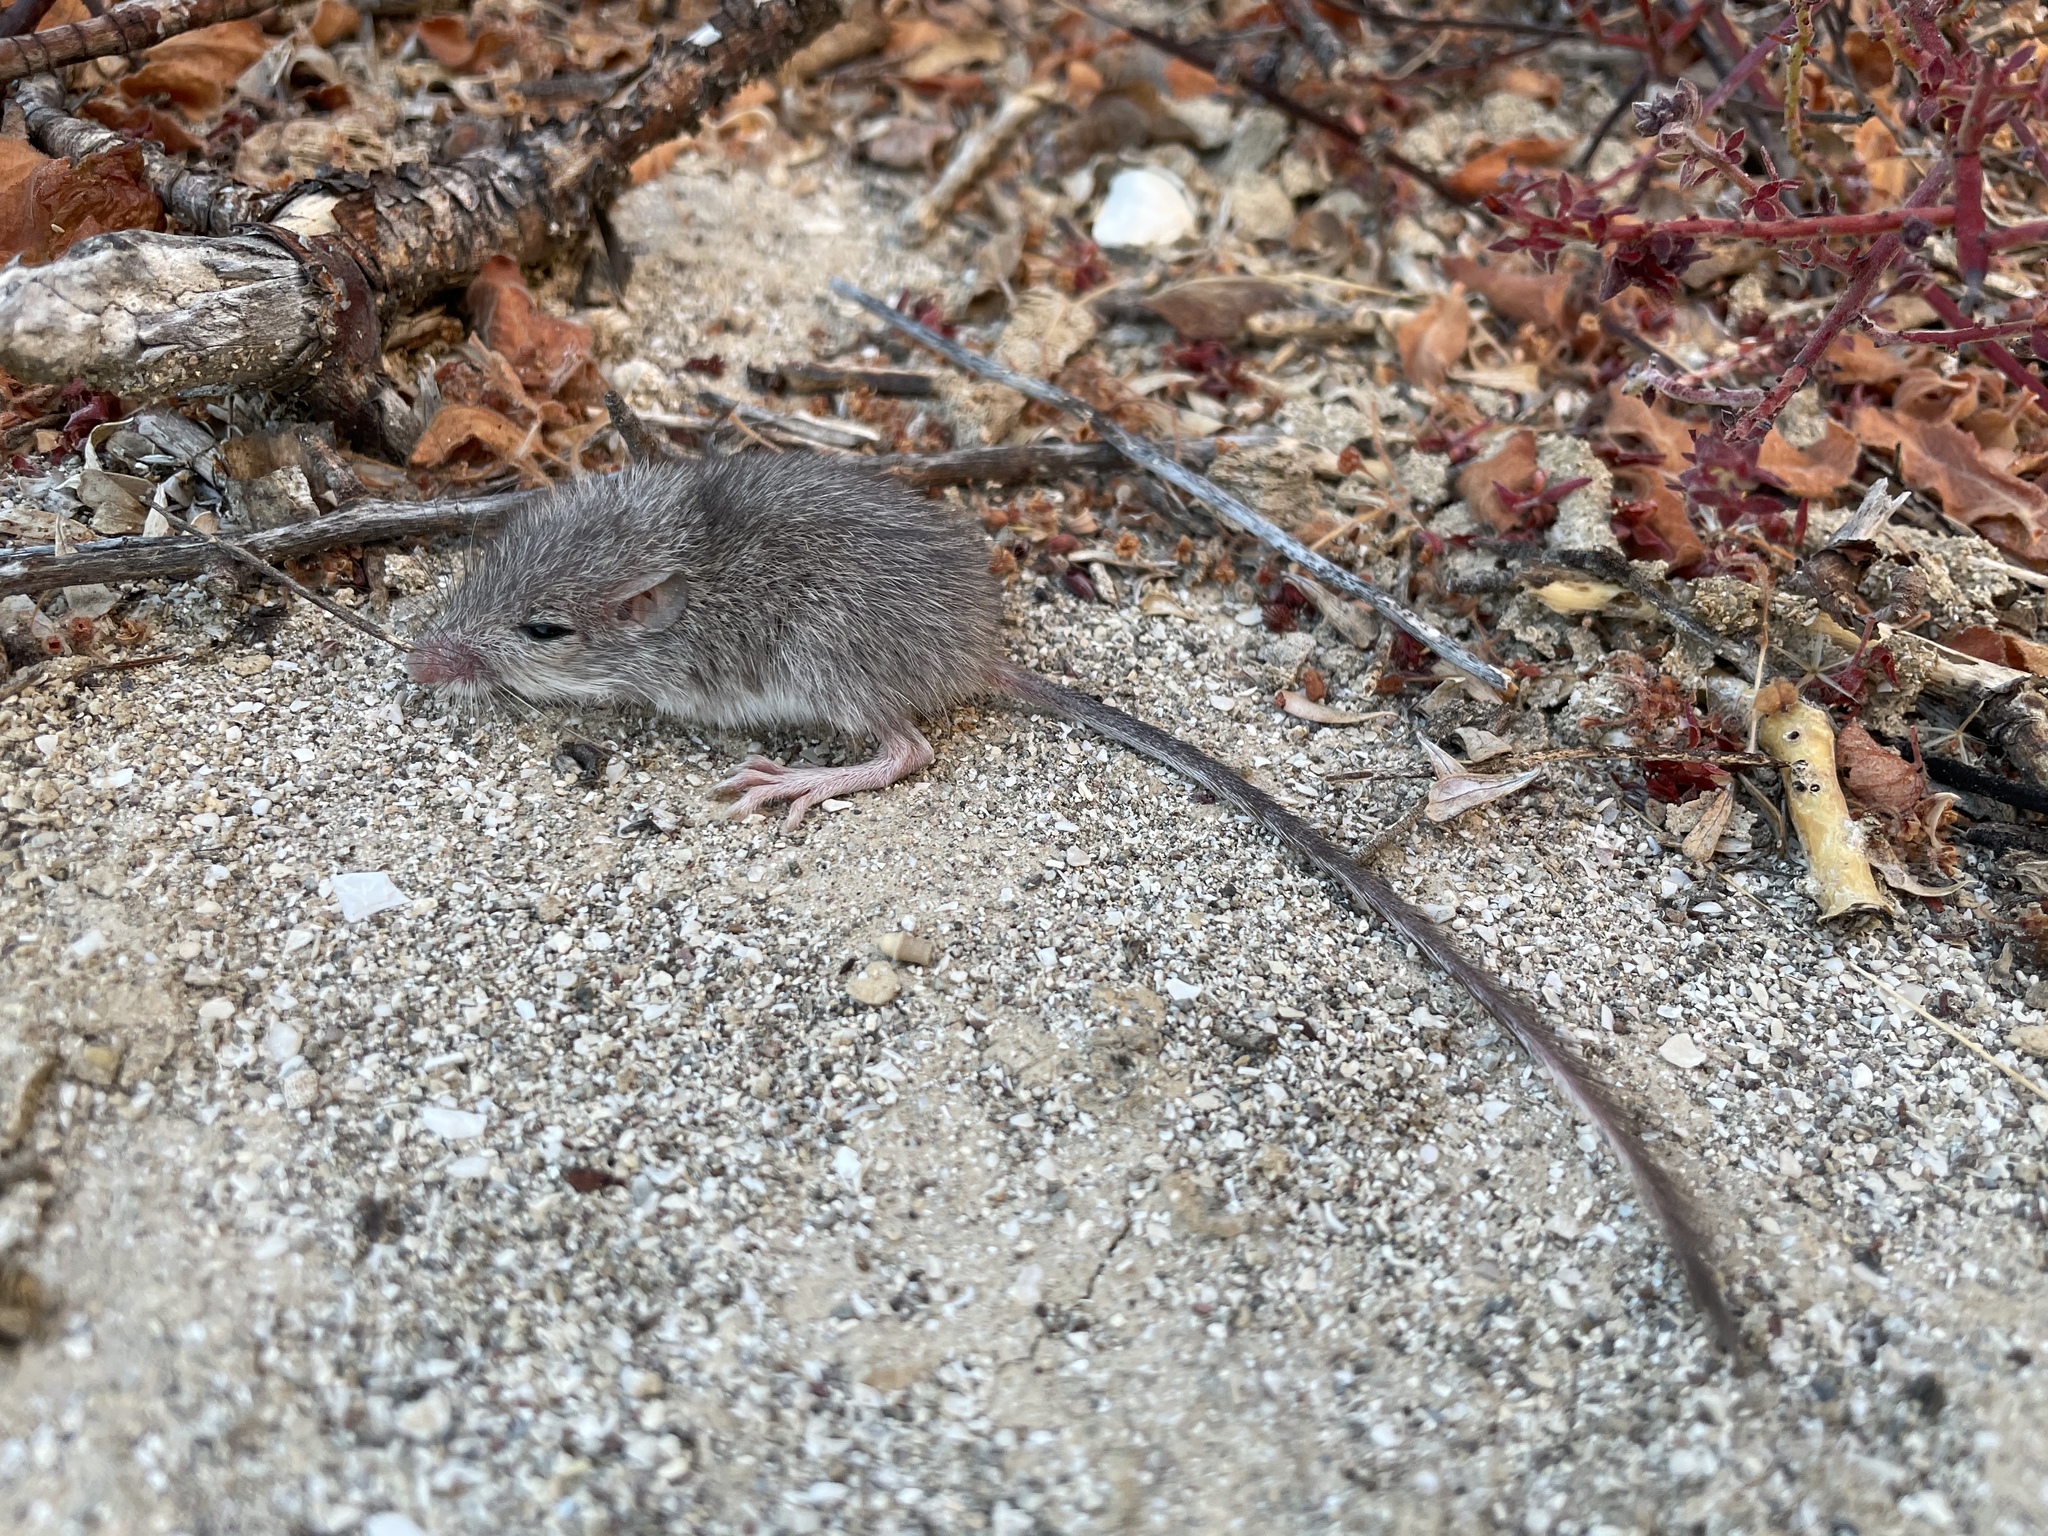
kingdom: Animalia
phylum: Chordata
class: Mammalia
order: Rodentia
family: Heteromyidae
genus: Chaetodipus
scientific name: Chaetodipus spinatus
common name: Spiny pocket mouse
